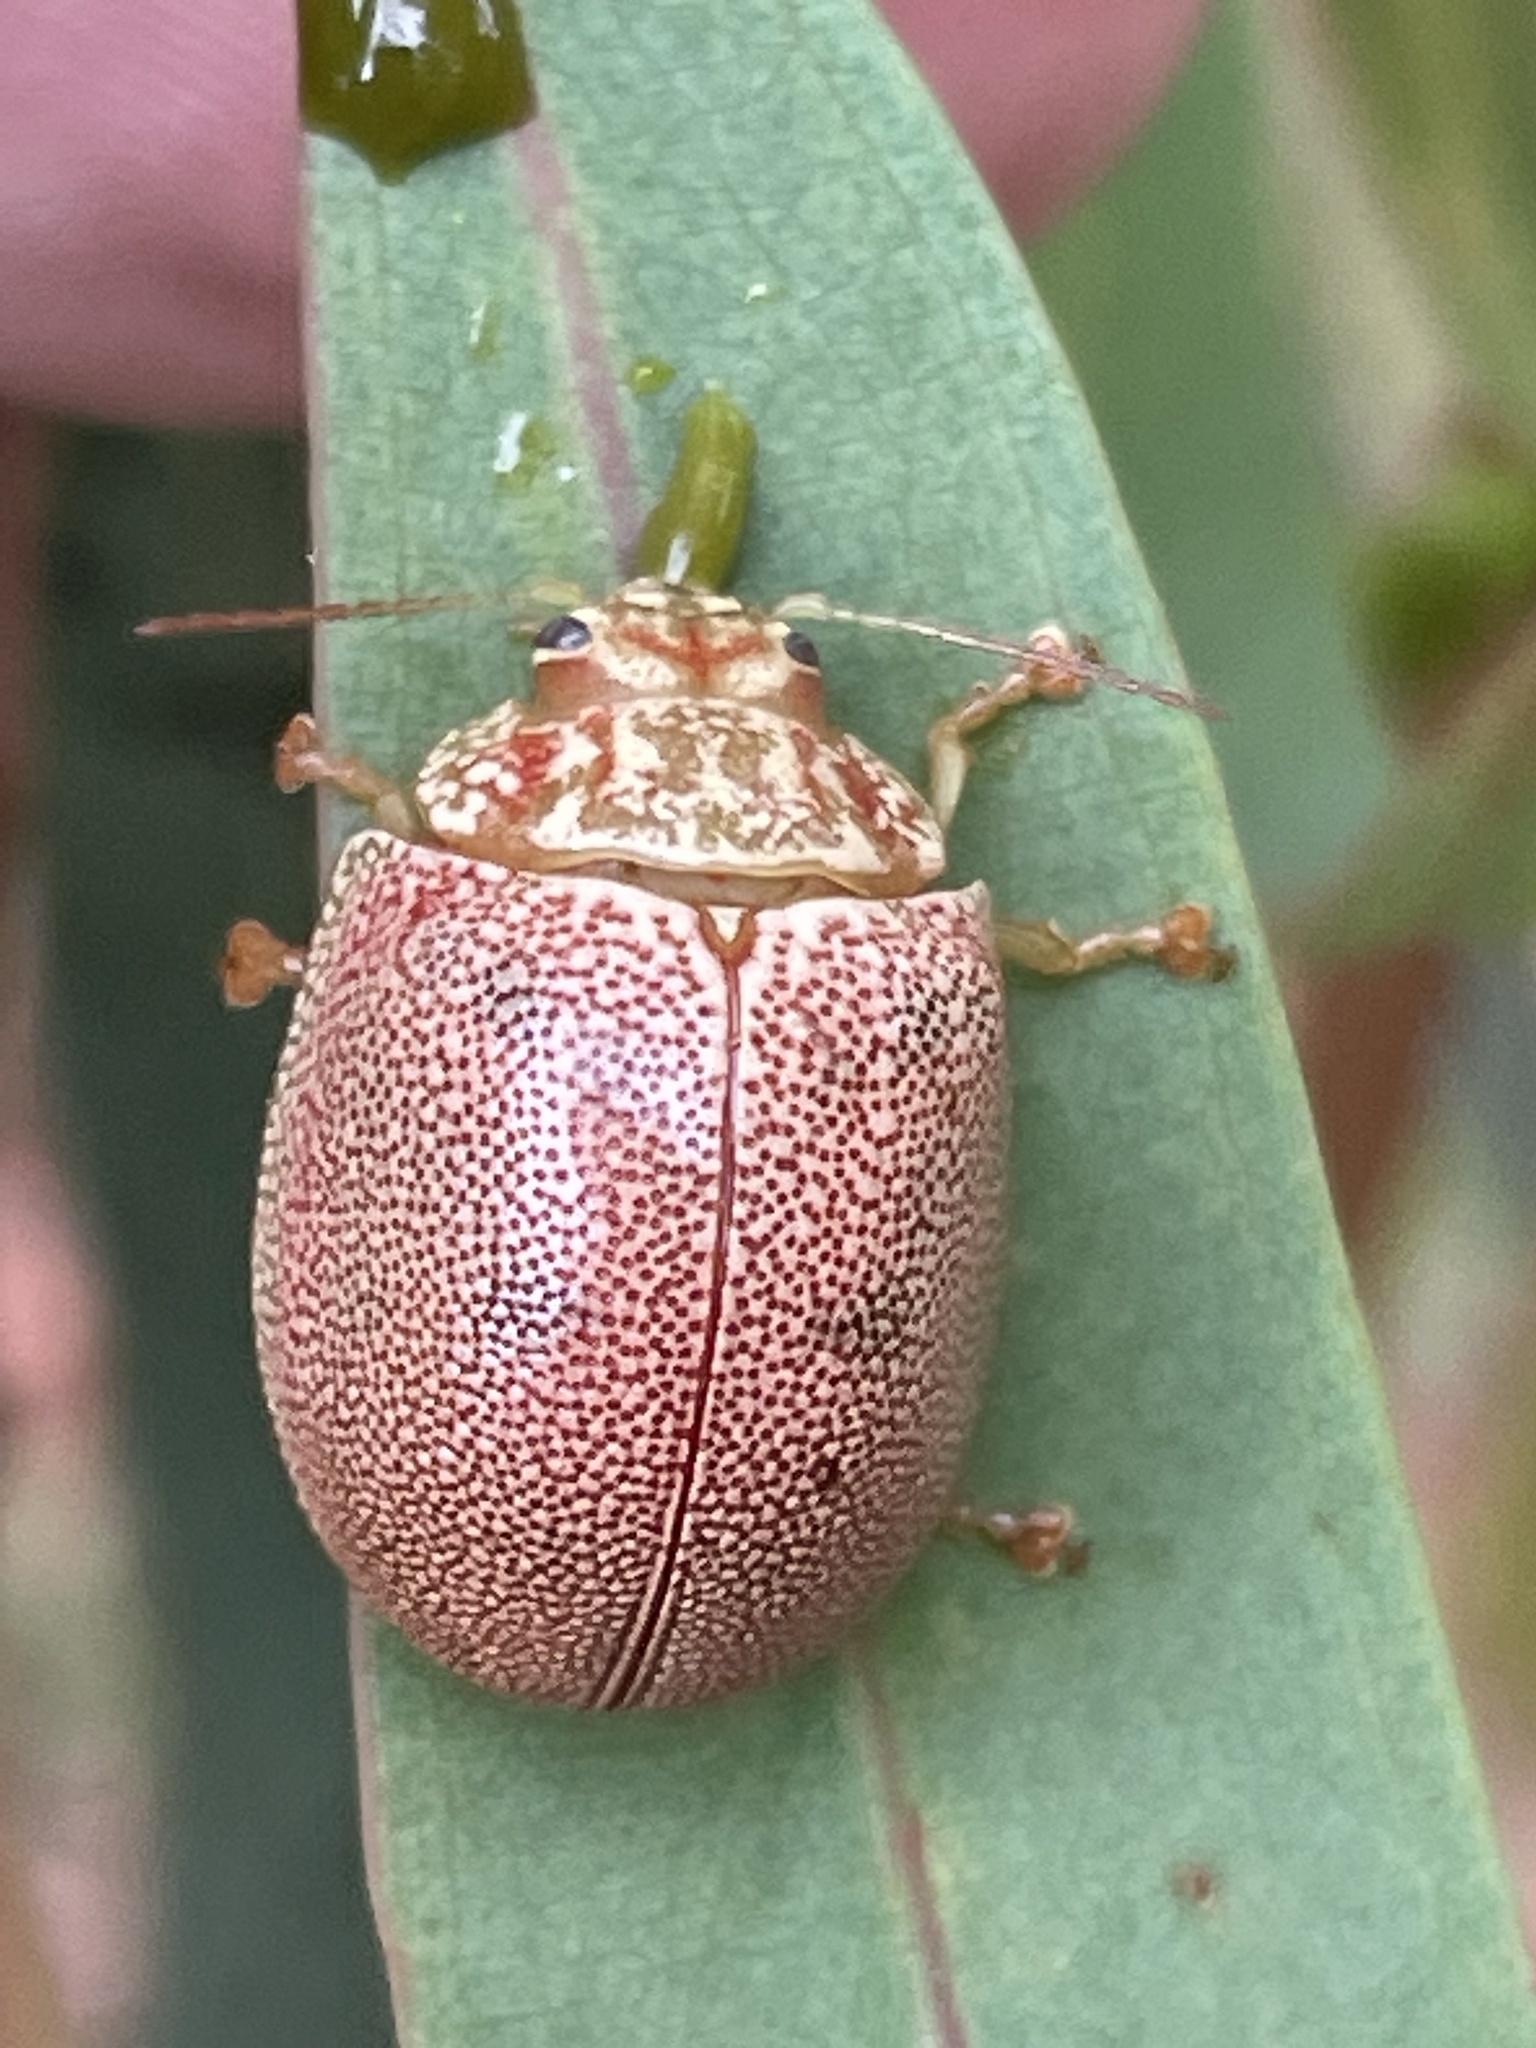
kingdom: Animalia
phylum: Arthropoda
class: Insecta
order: Coleoptera
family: Chrysomelidae
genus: Paropsis
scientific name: Paropsis
